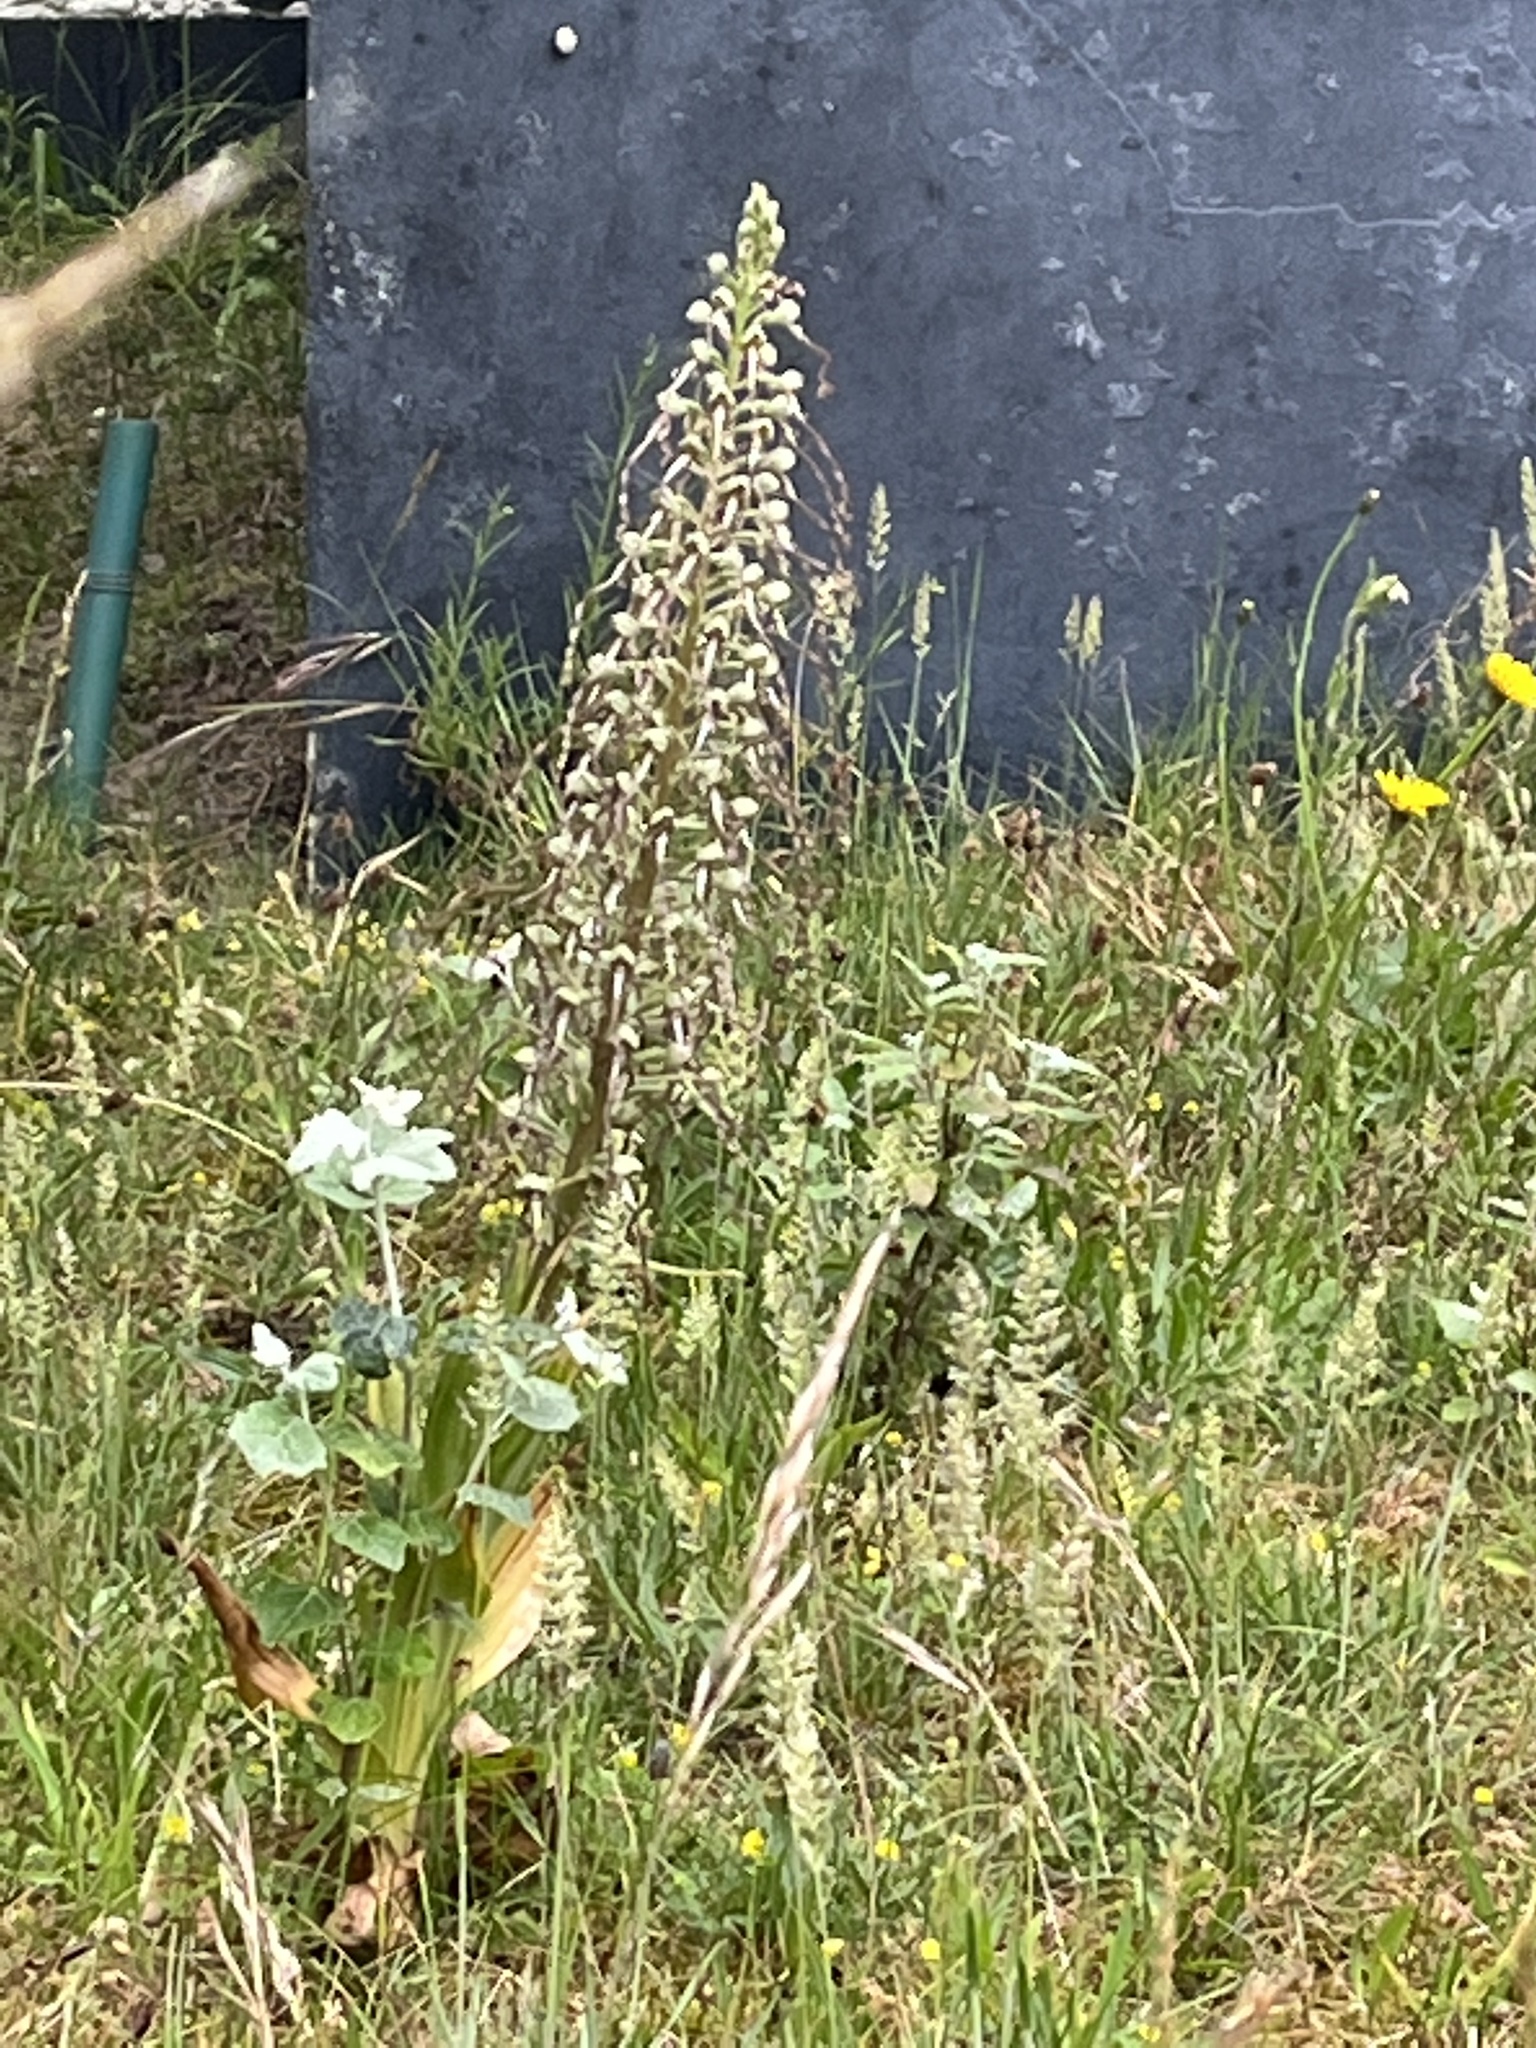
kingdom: Plantae
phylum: Tracheophyta
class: Liliopsida
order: Asparagales
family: Orchidaceae
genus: Himantoglossum
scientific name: Himantoglossum hircinum
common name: Lizard orchid
